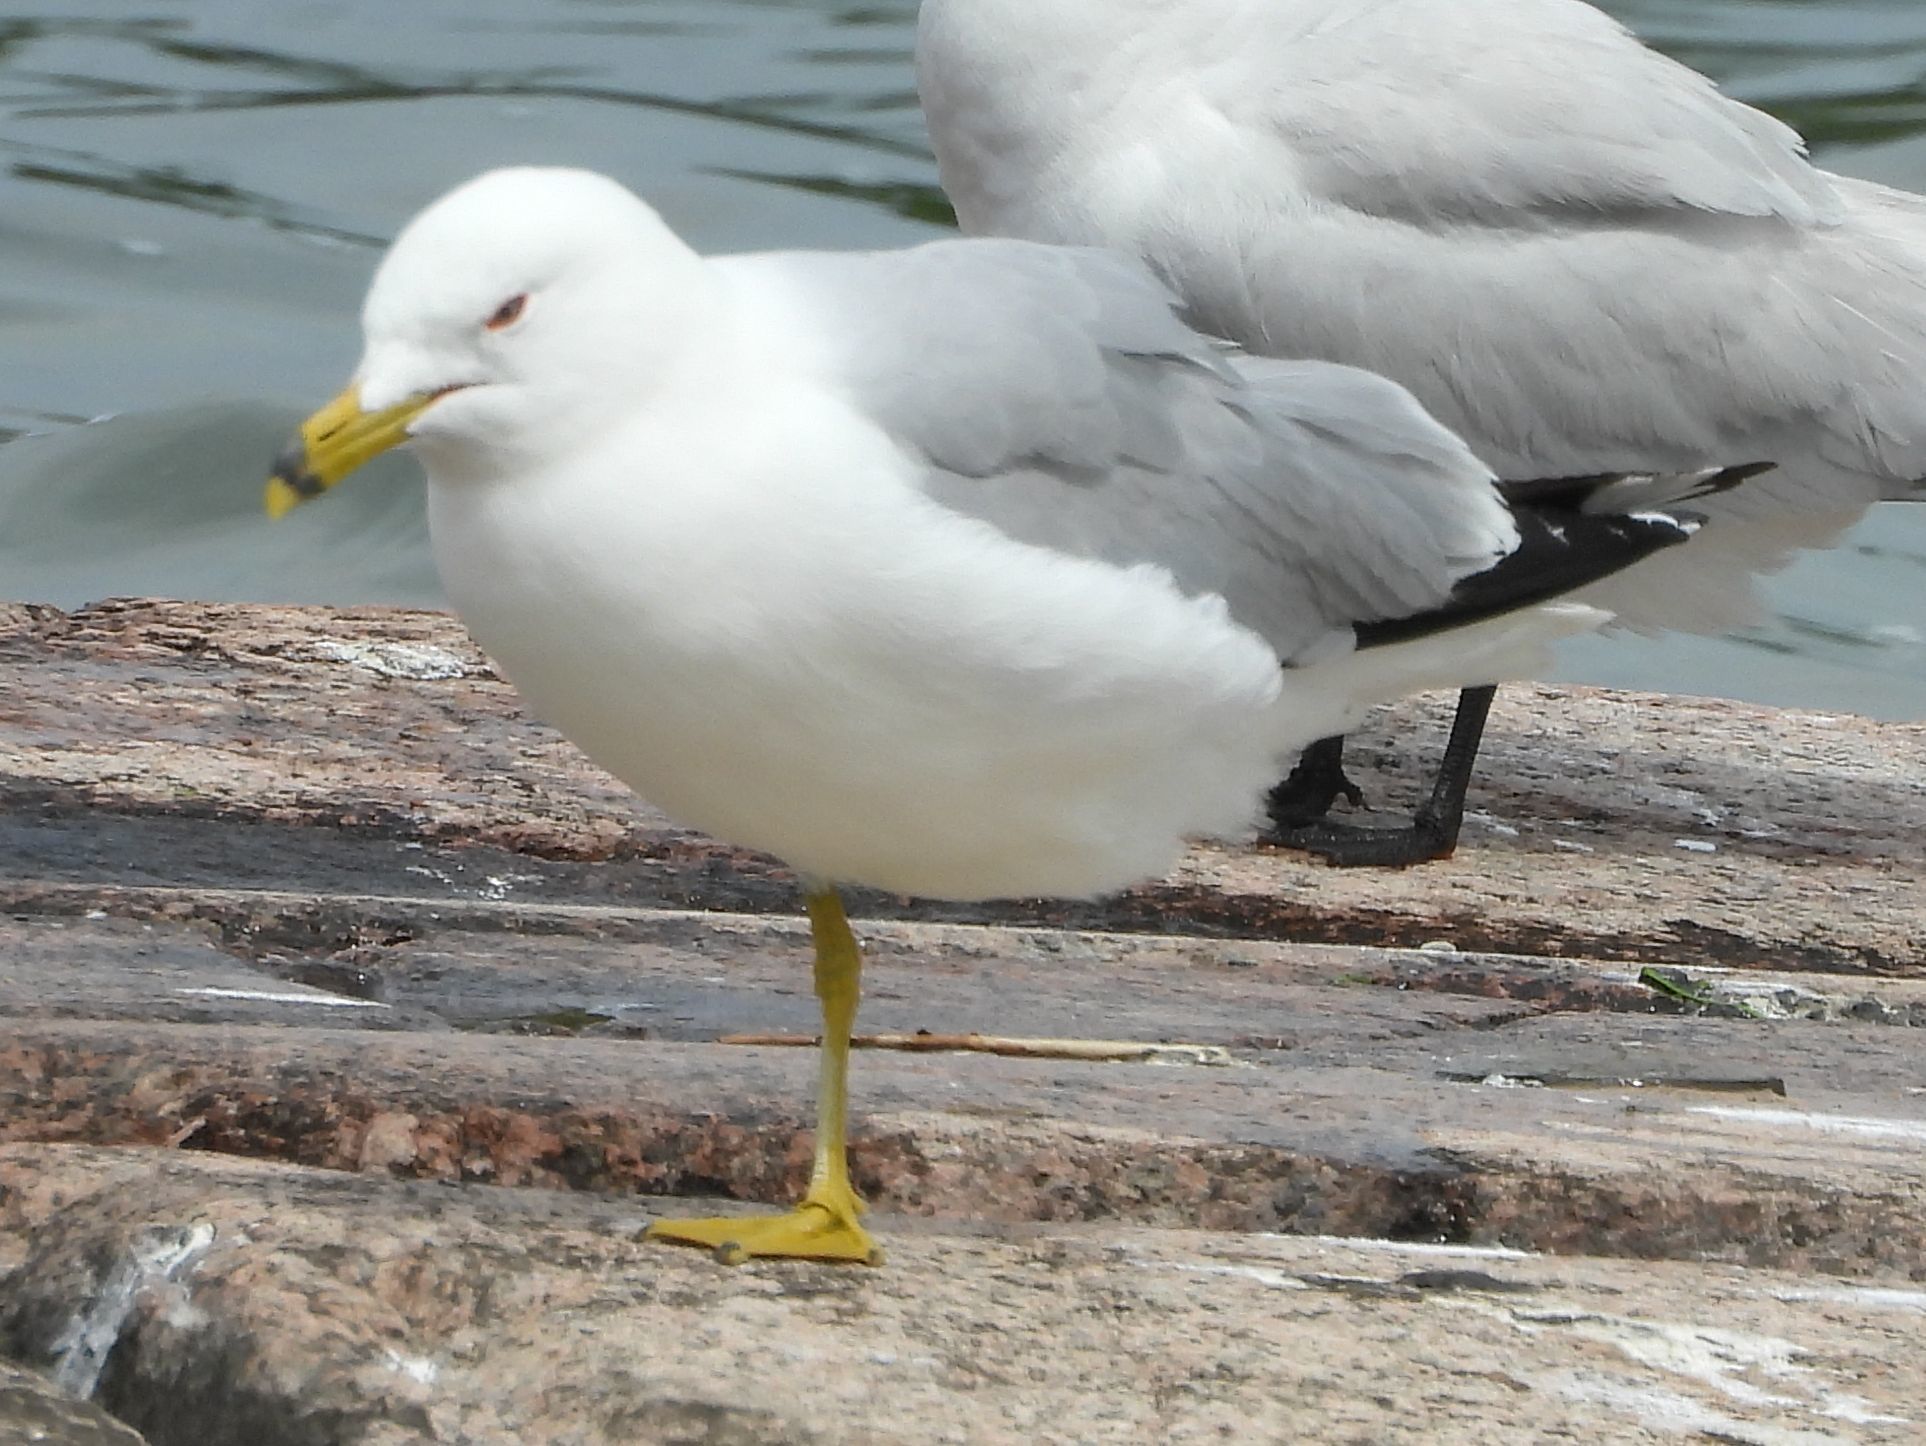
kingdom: Animalia
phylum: Chordata
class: Aves
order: Charadriiformes
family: Laridae
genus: Larus
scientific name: Larus delawarensis
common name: Ring-billed gull
